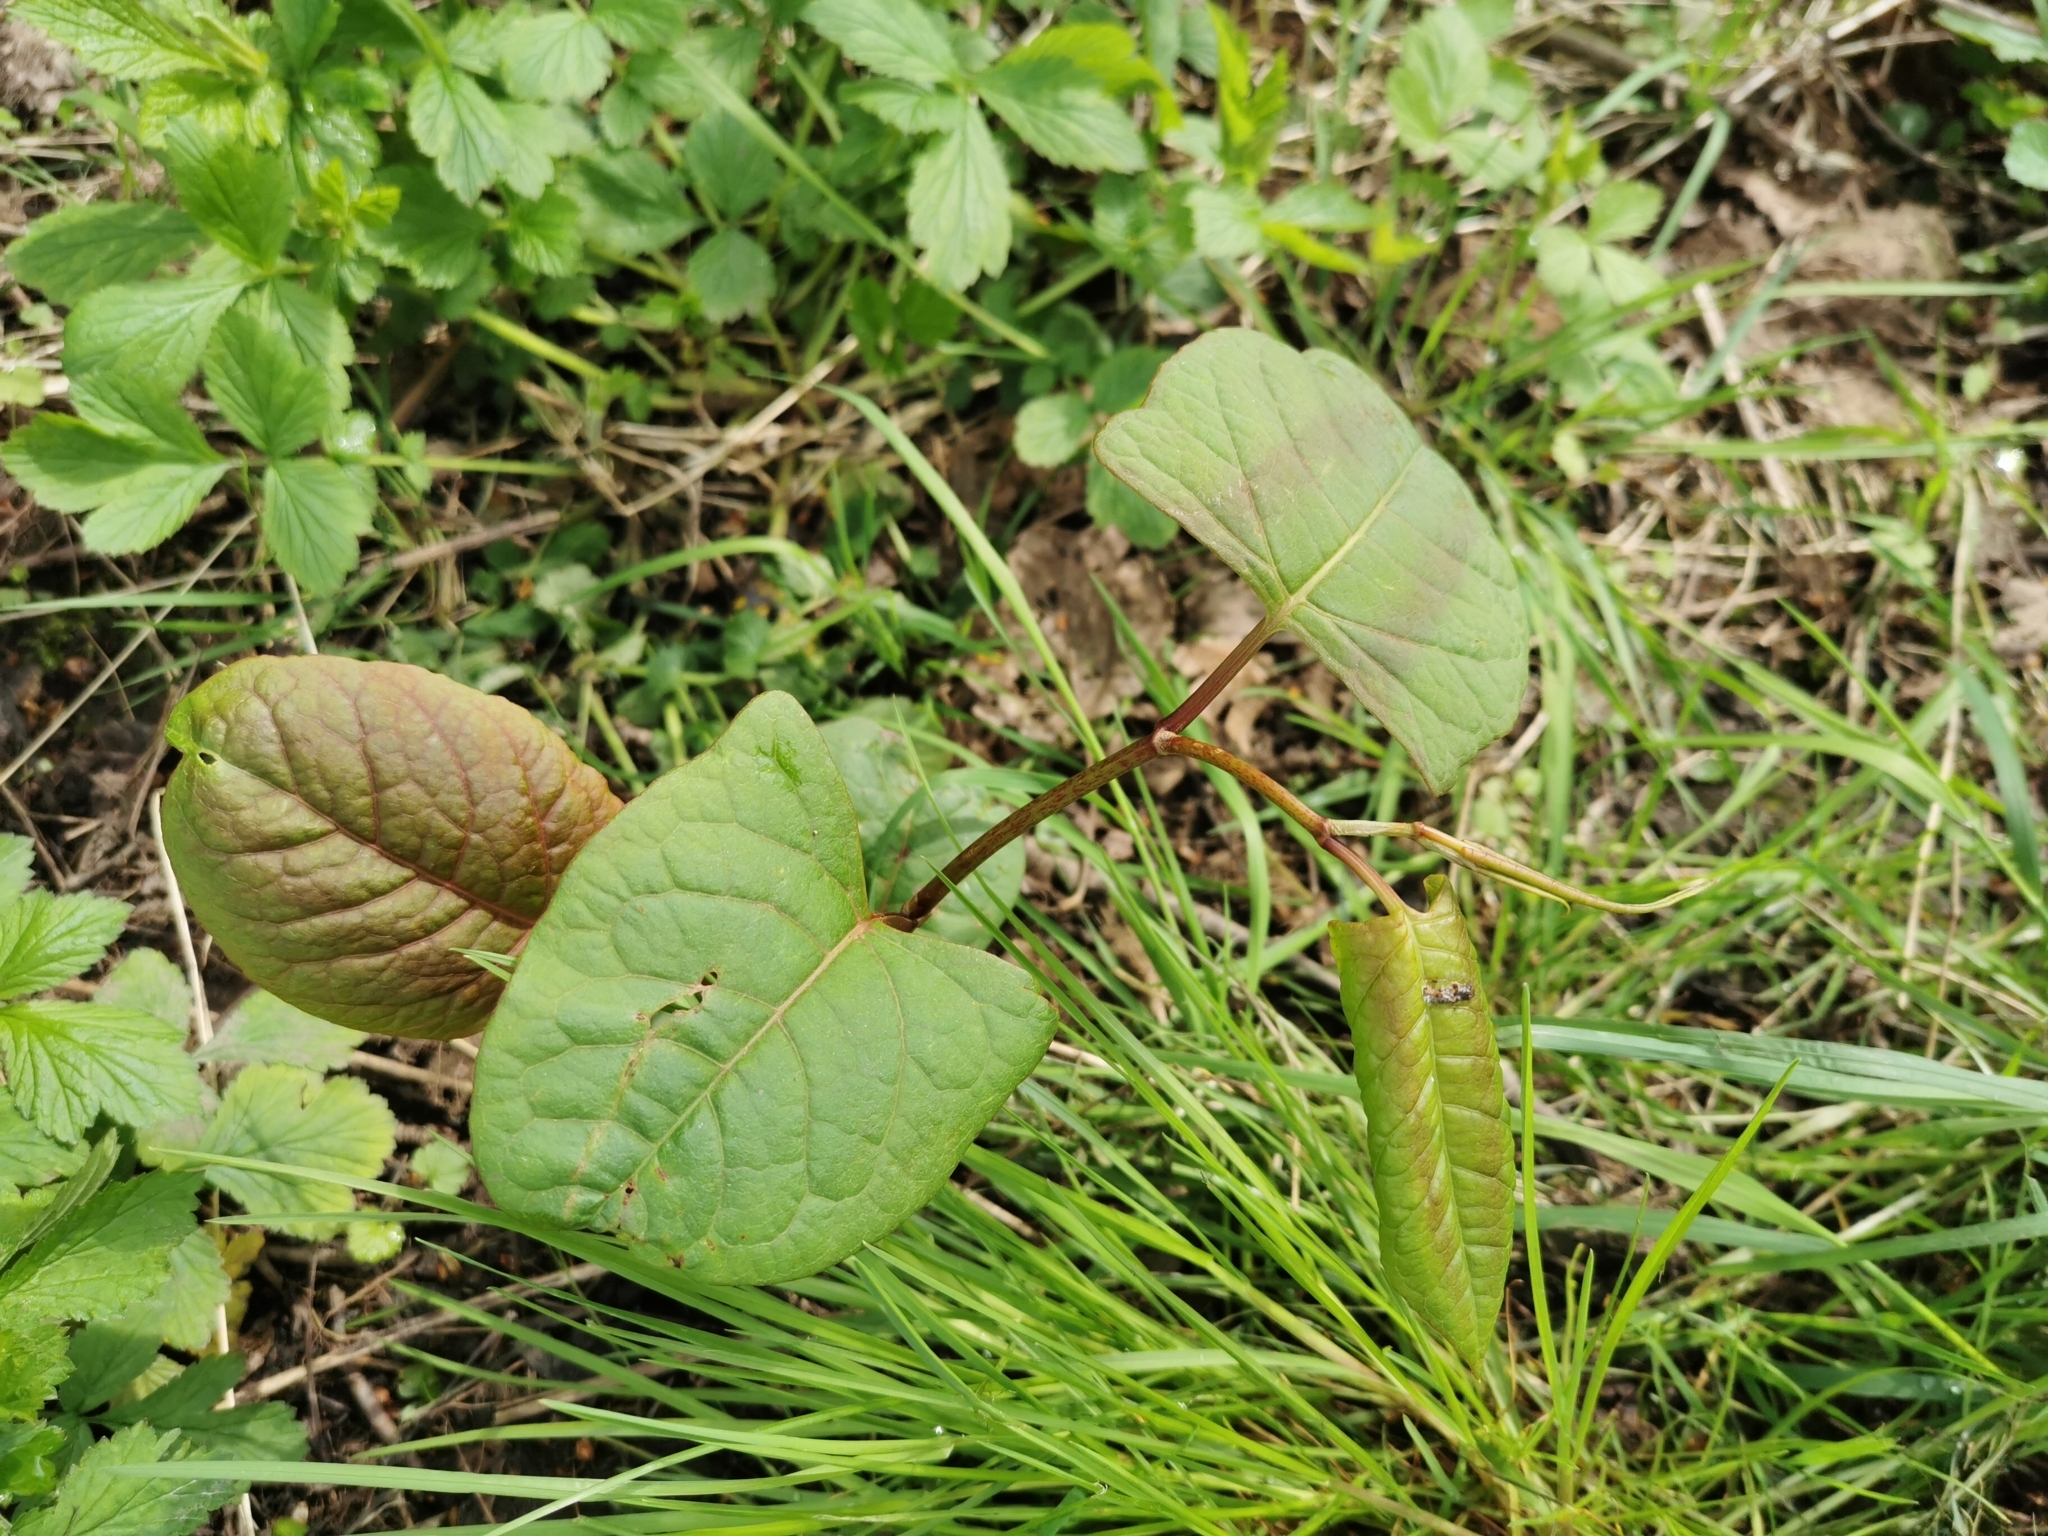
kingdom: Plantae
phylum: Tracheophyta
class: Magnoliopsida
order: Caryophyllales
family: Polygonaceae
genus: Reynoutria
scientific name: Reynoutria japonica
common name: Japanese knotweed
